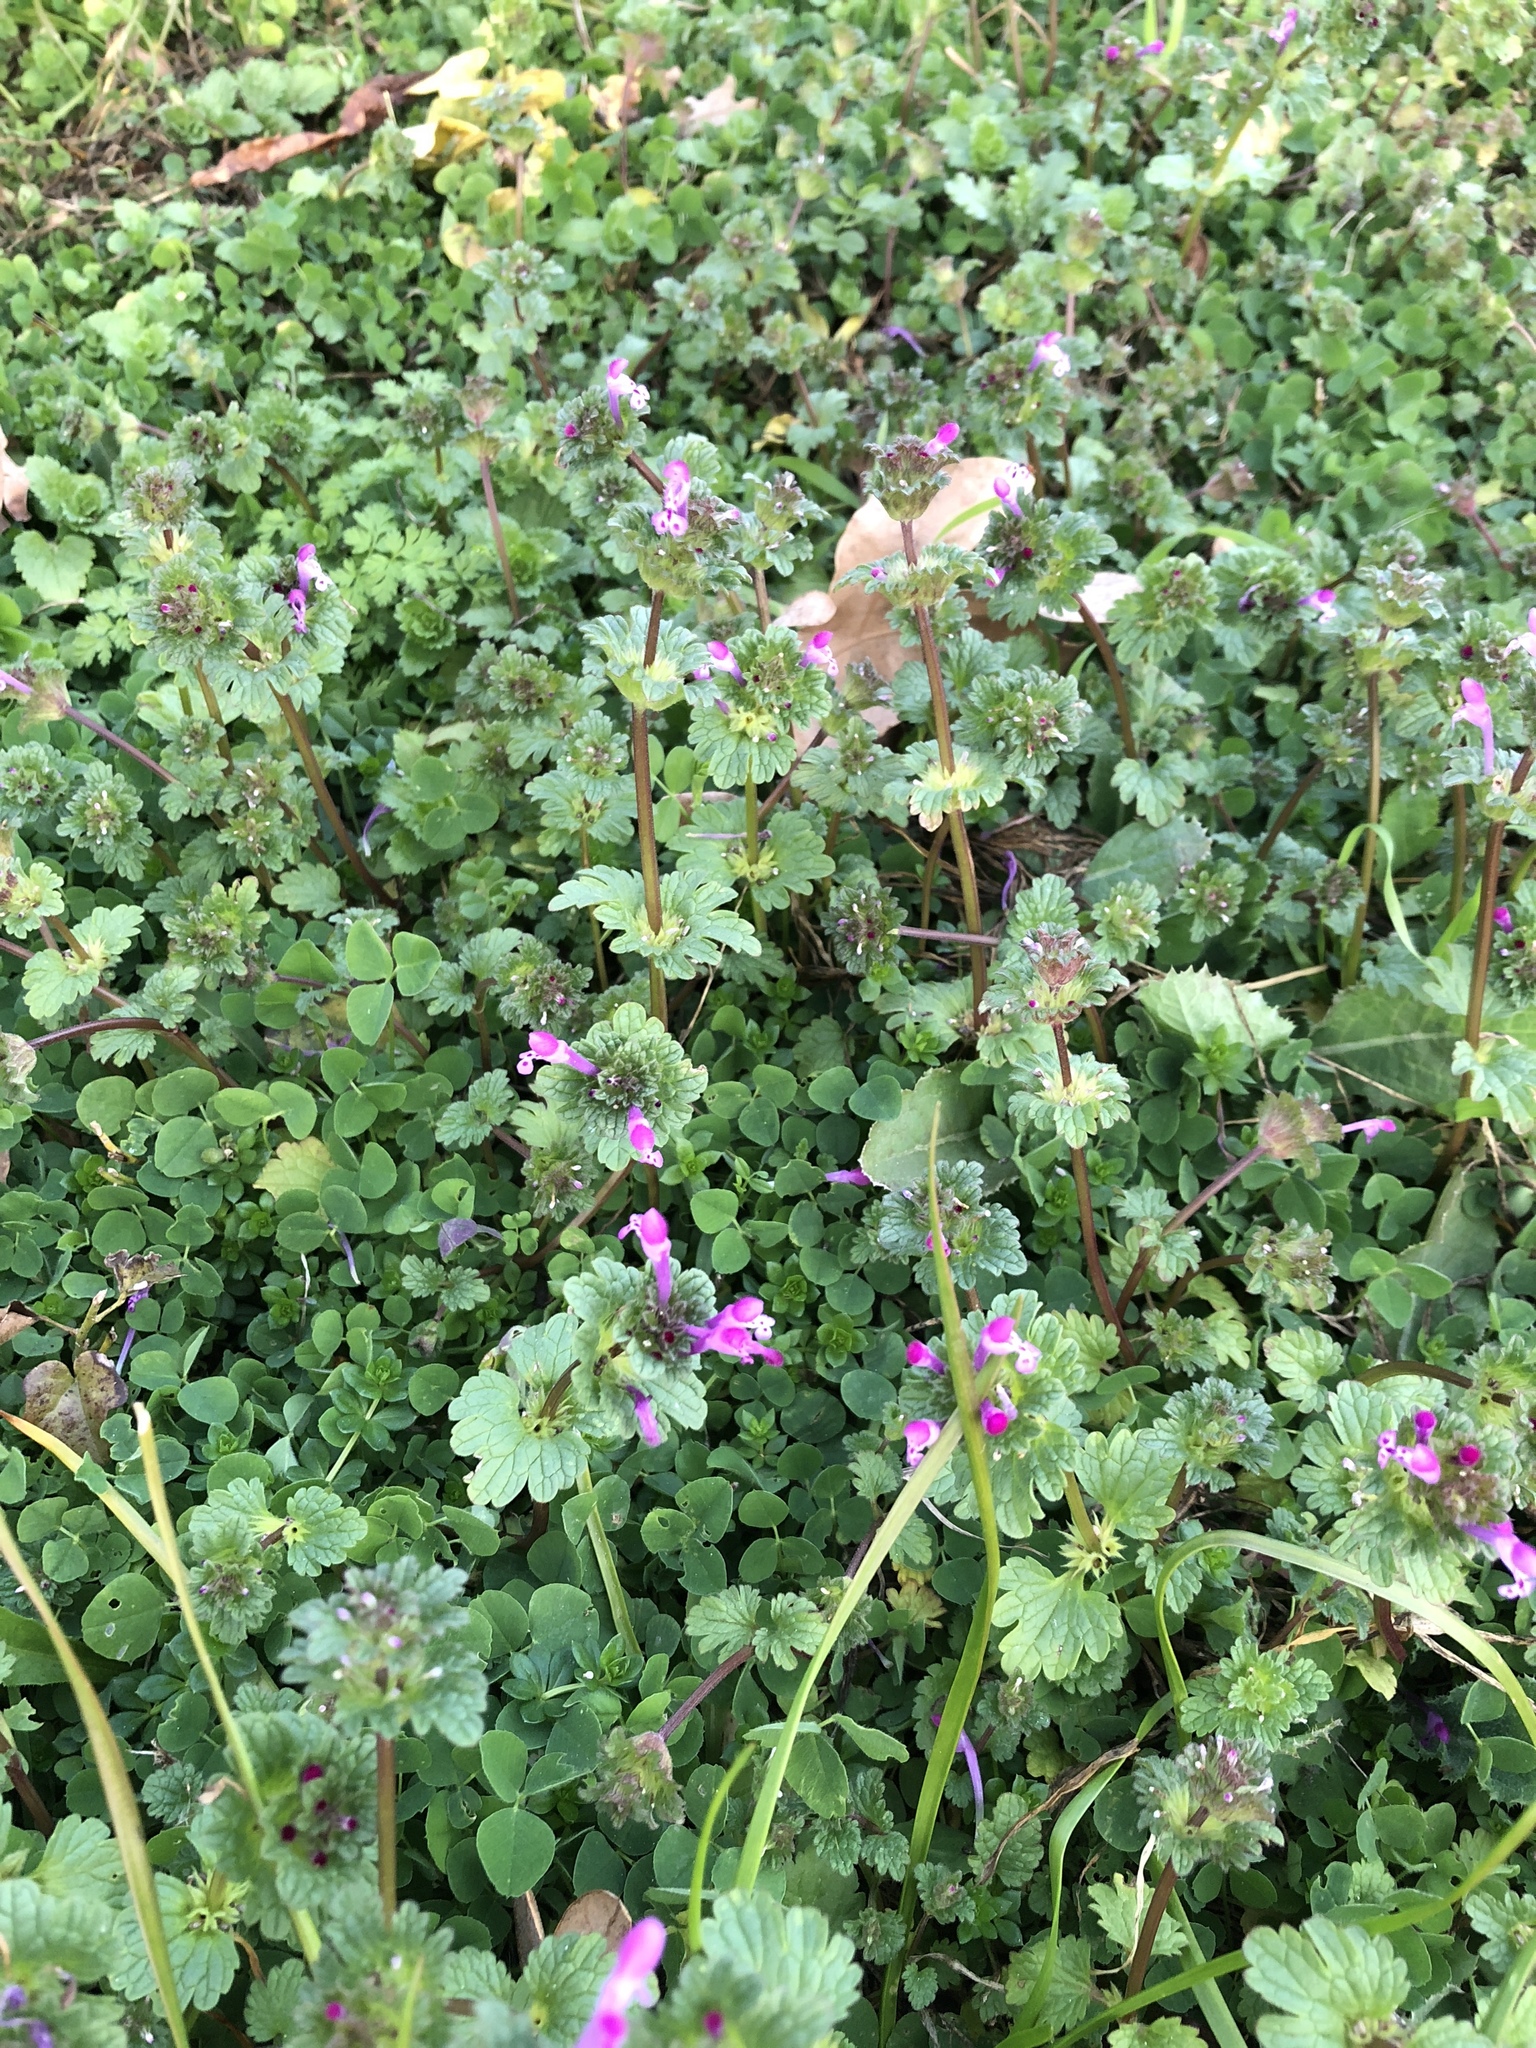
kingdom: Plantae
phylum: Tracheophyta
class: Magnoliopsida
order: Lamiales
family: Lamiaceae
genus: Lamium
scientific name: Lamium amplexicaule
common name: Henbit dead-nettle
